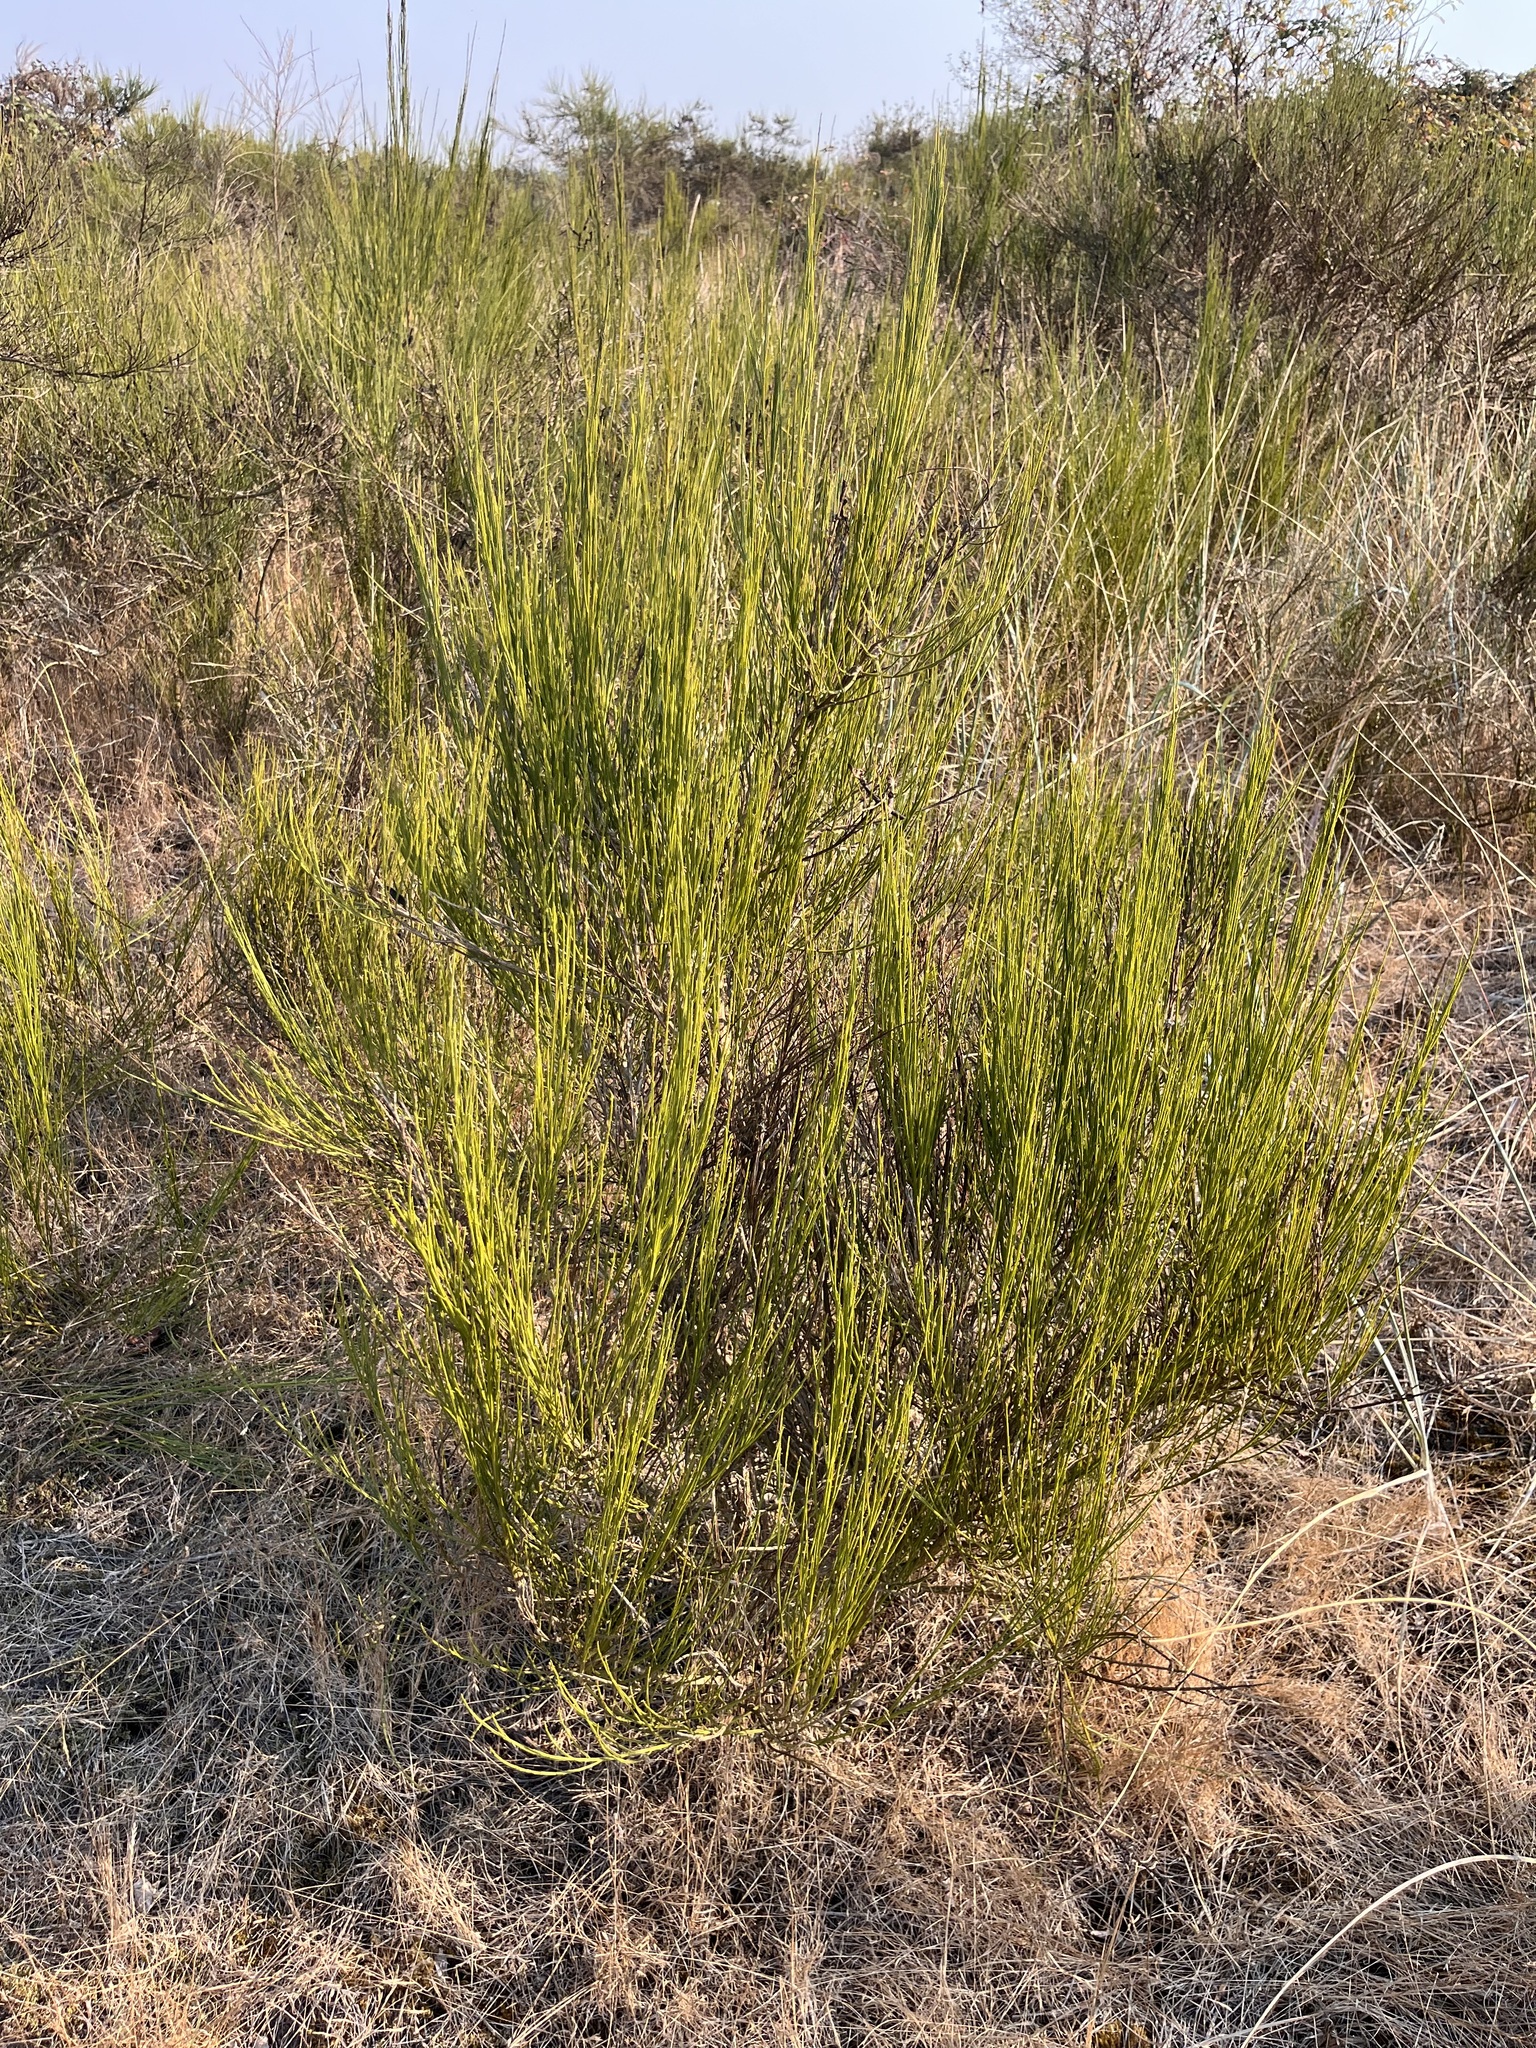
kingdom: Plantae
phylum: Tracheophyta
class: Magnoliopsida
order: Fabales
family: Fabaceae
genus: Cytisus
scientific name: Cytisus scoparius
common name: Scotch broom
